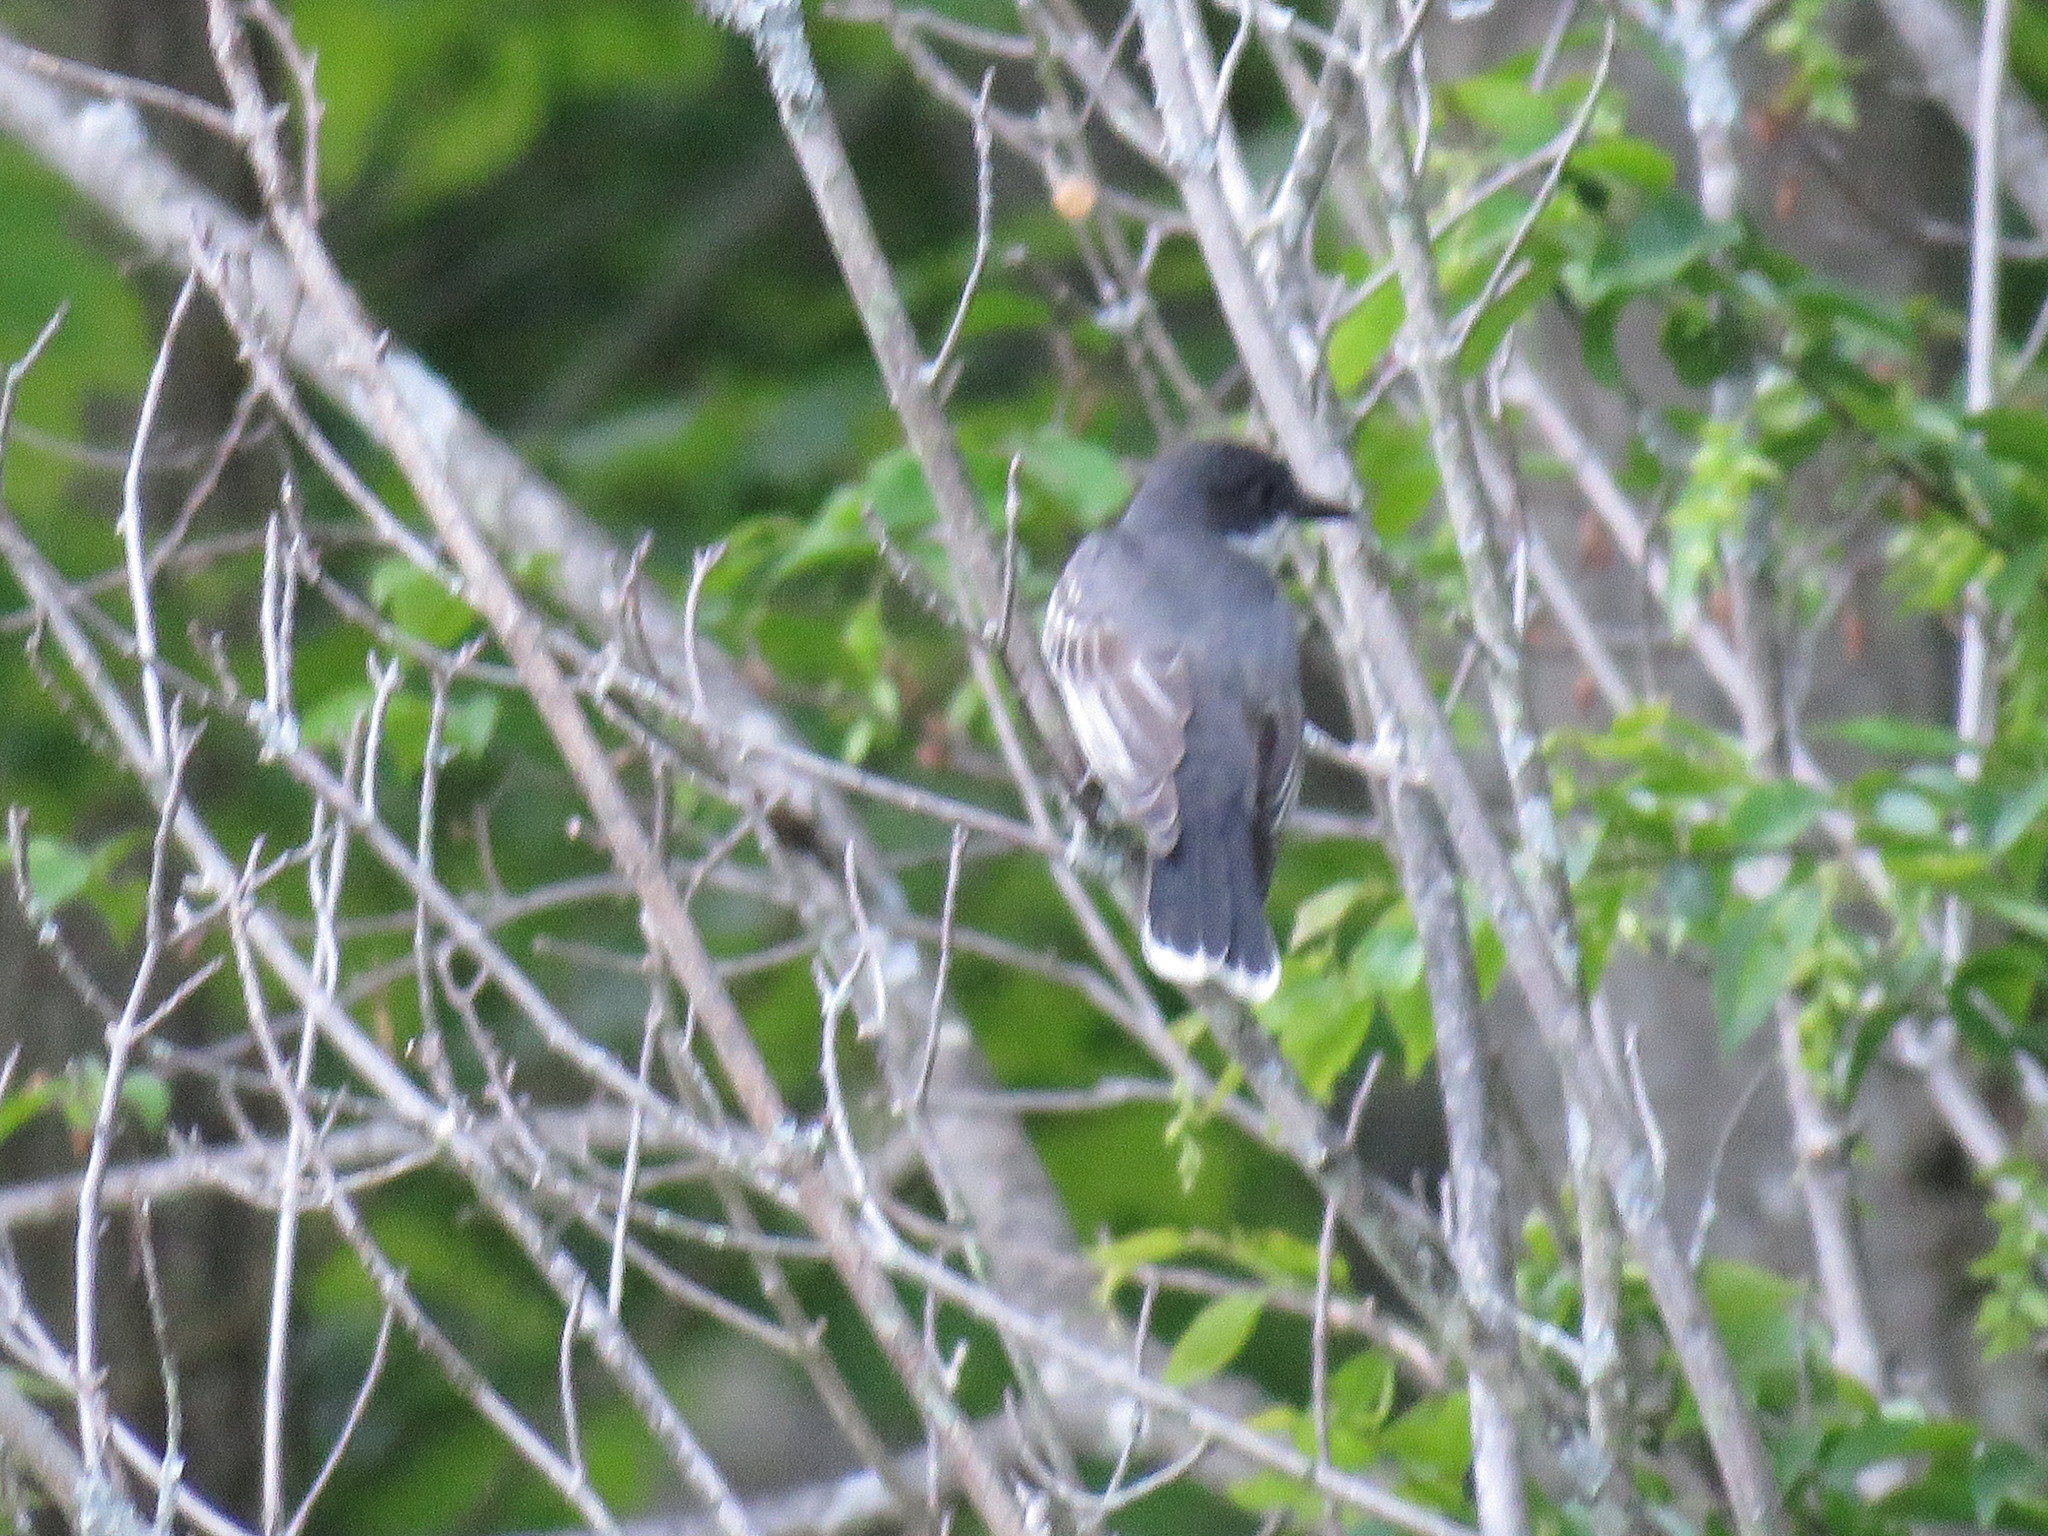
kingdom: Animalia
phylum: Chordata
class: Aves
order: Passeriformes
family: Tyrannidae
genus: Tyrannus
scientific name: Tyrannus tyrannus
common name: Eastern kingbird
